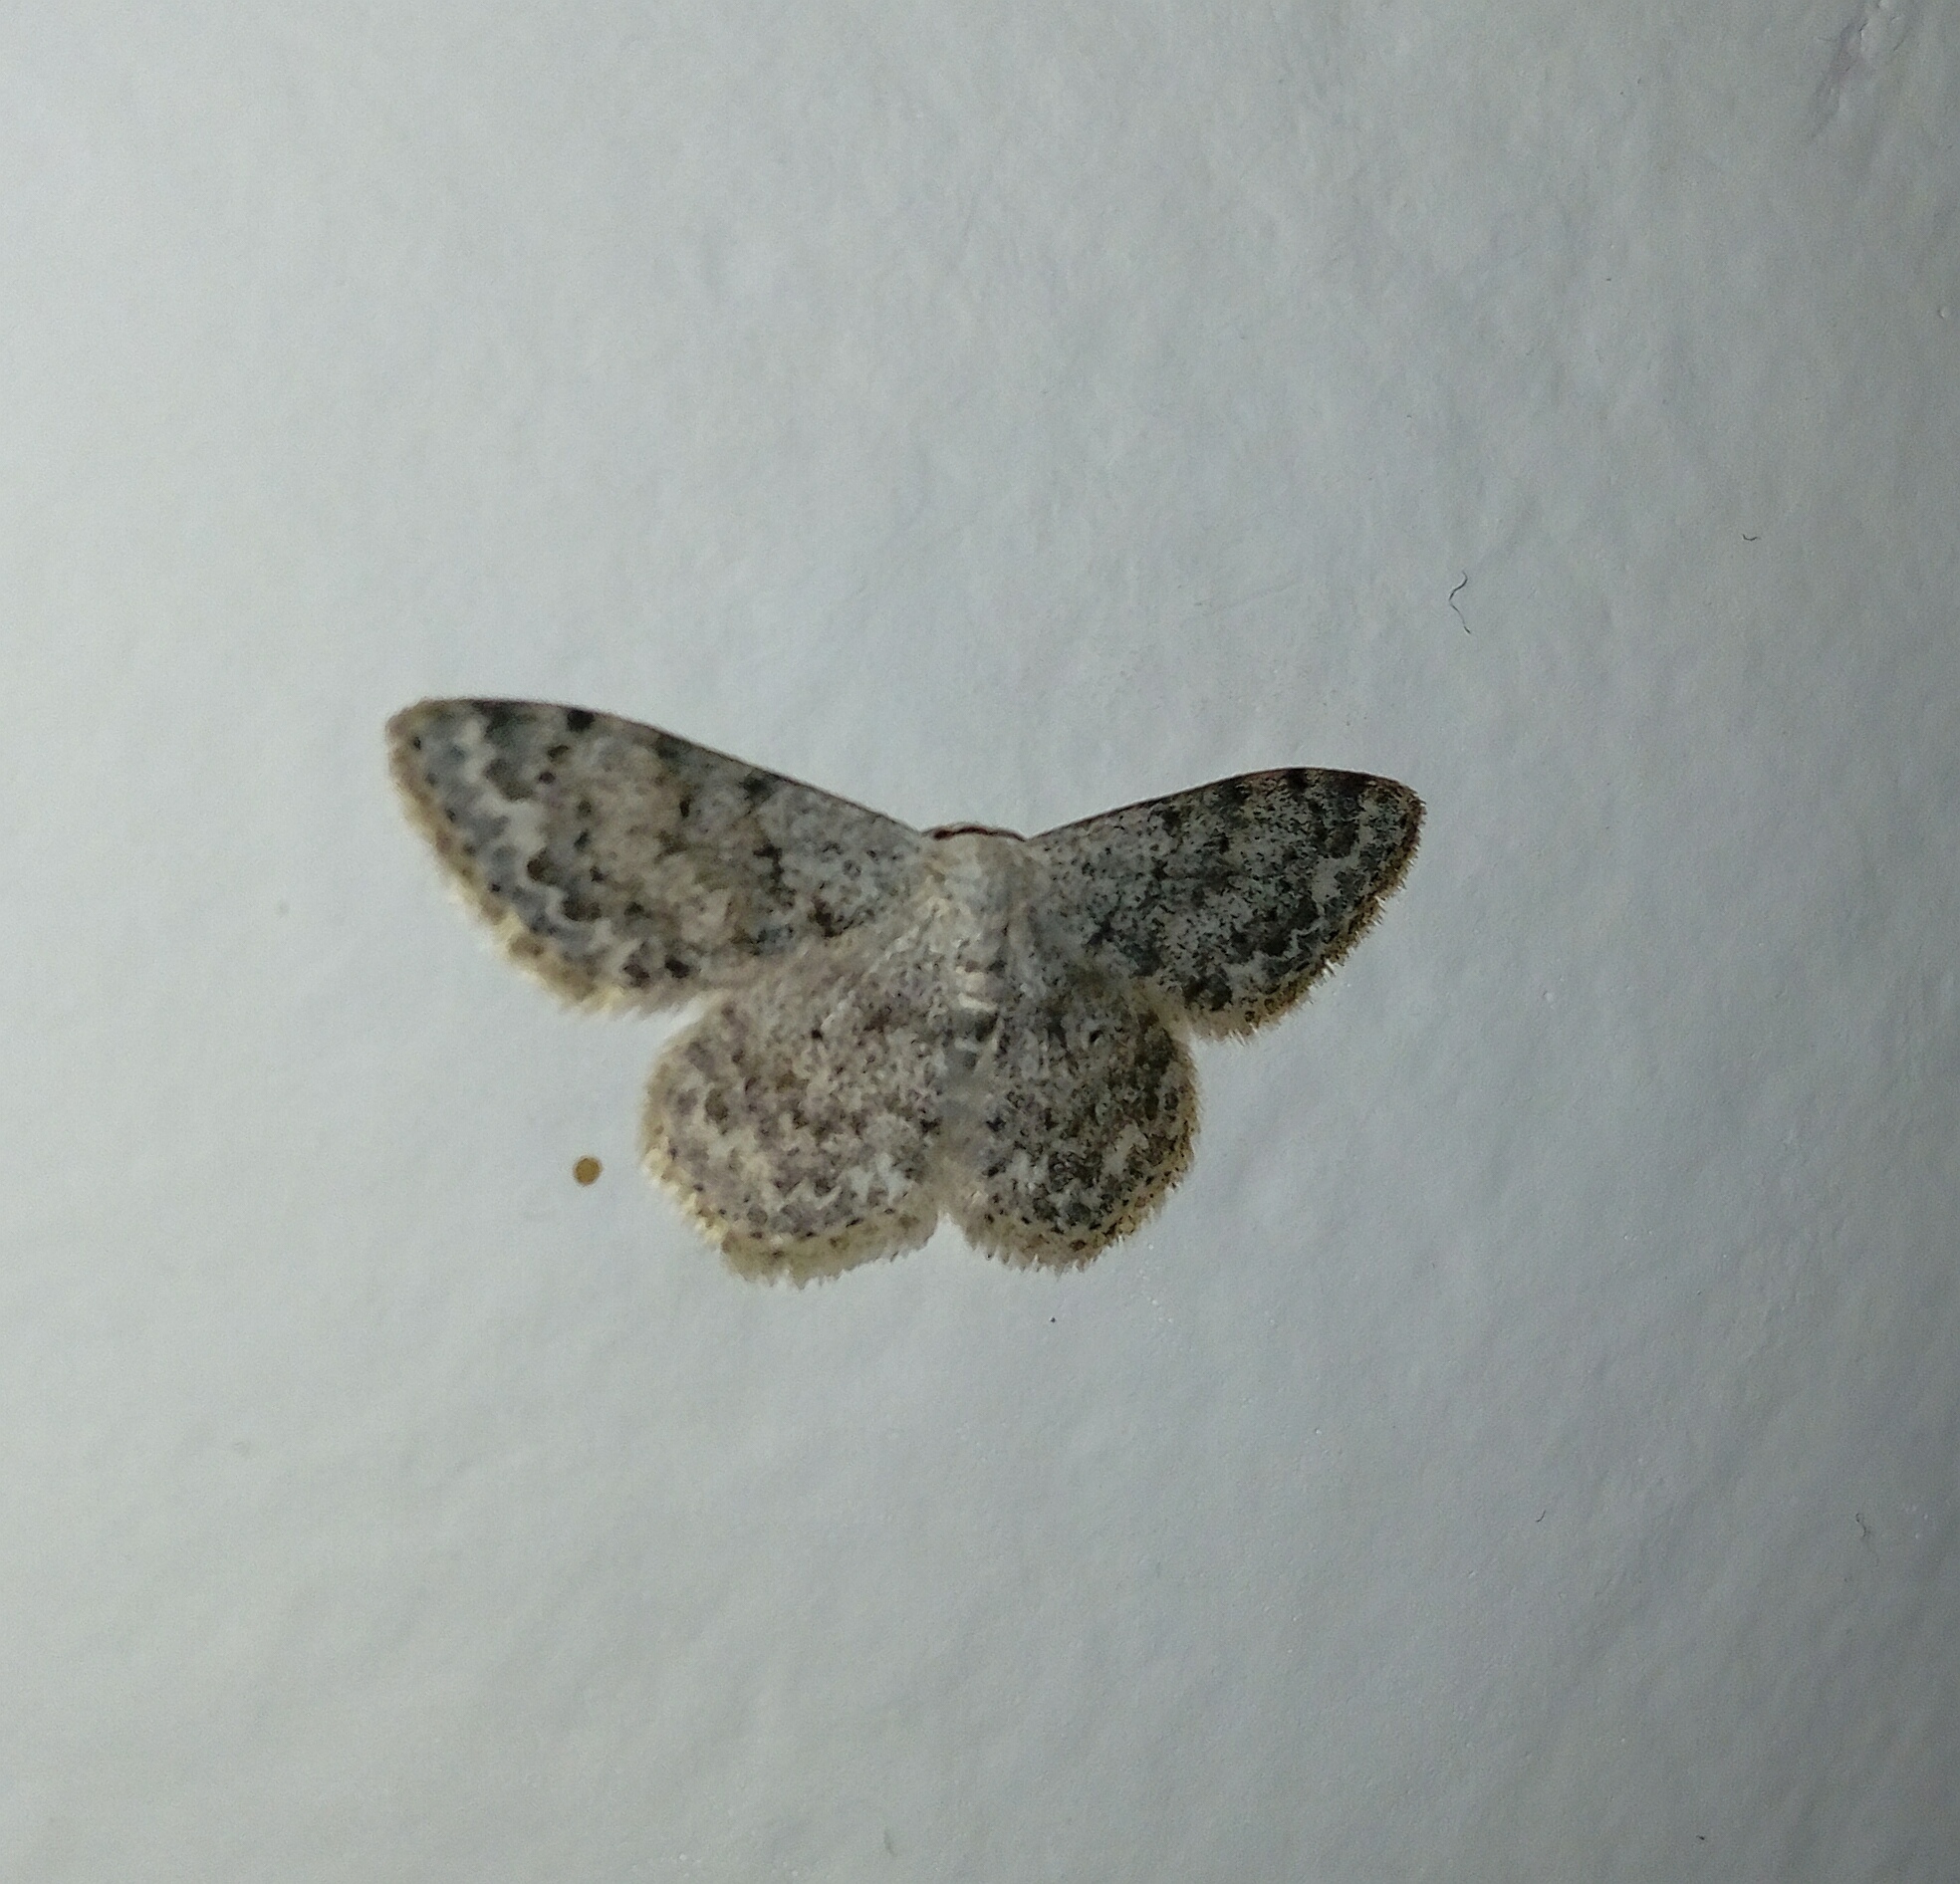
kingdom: Animalia
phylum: Arthropoda
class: Insecta
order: Lepidoptera
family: Geometridae
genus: Scopula
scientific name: Scopula marginepunctata
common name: Mullein wave
